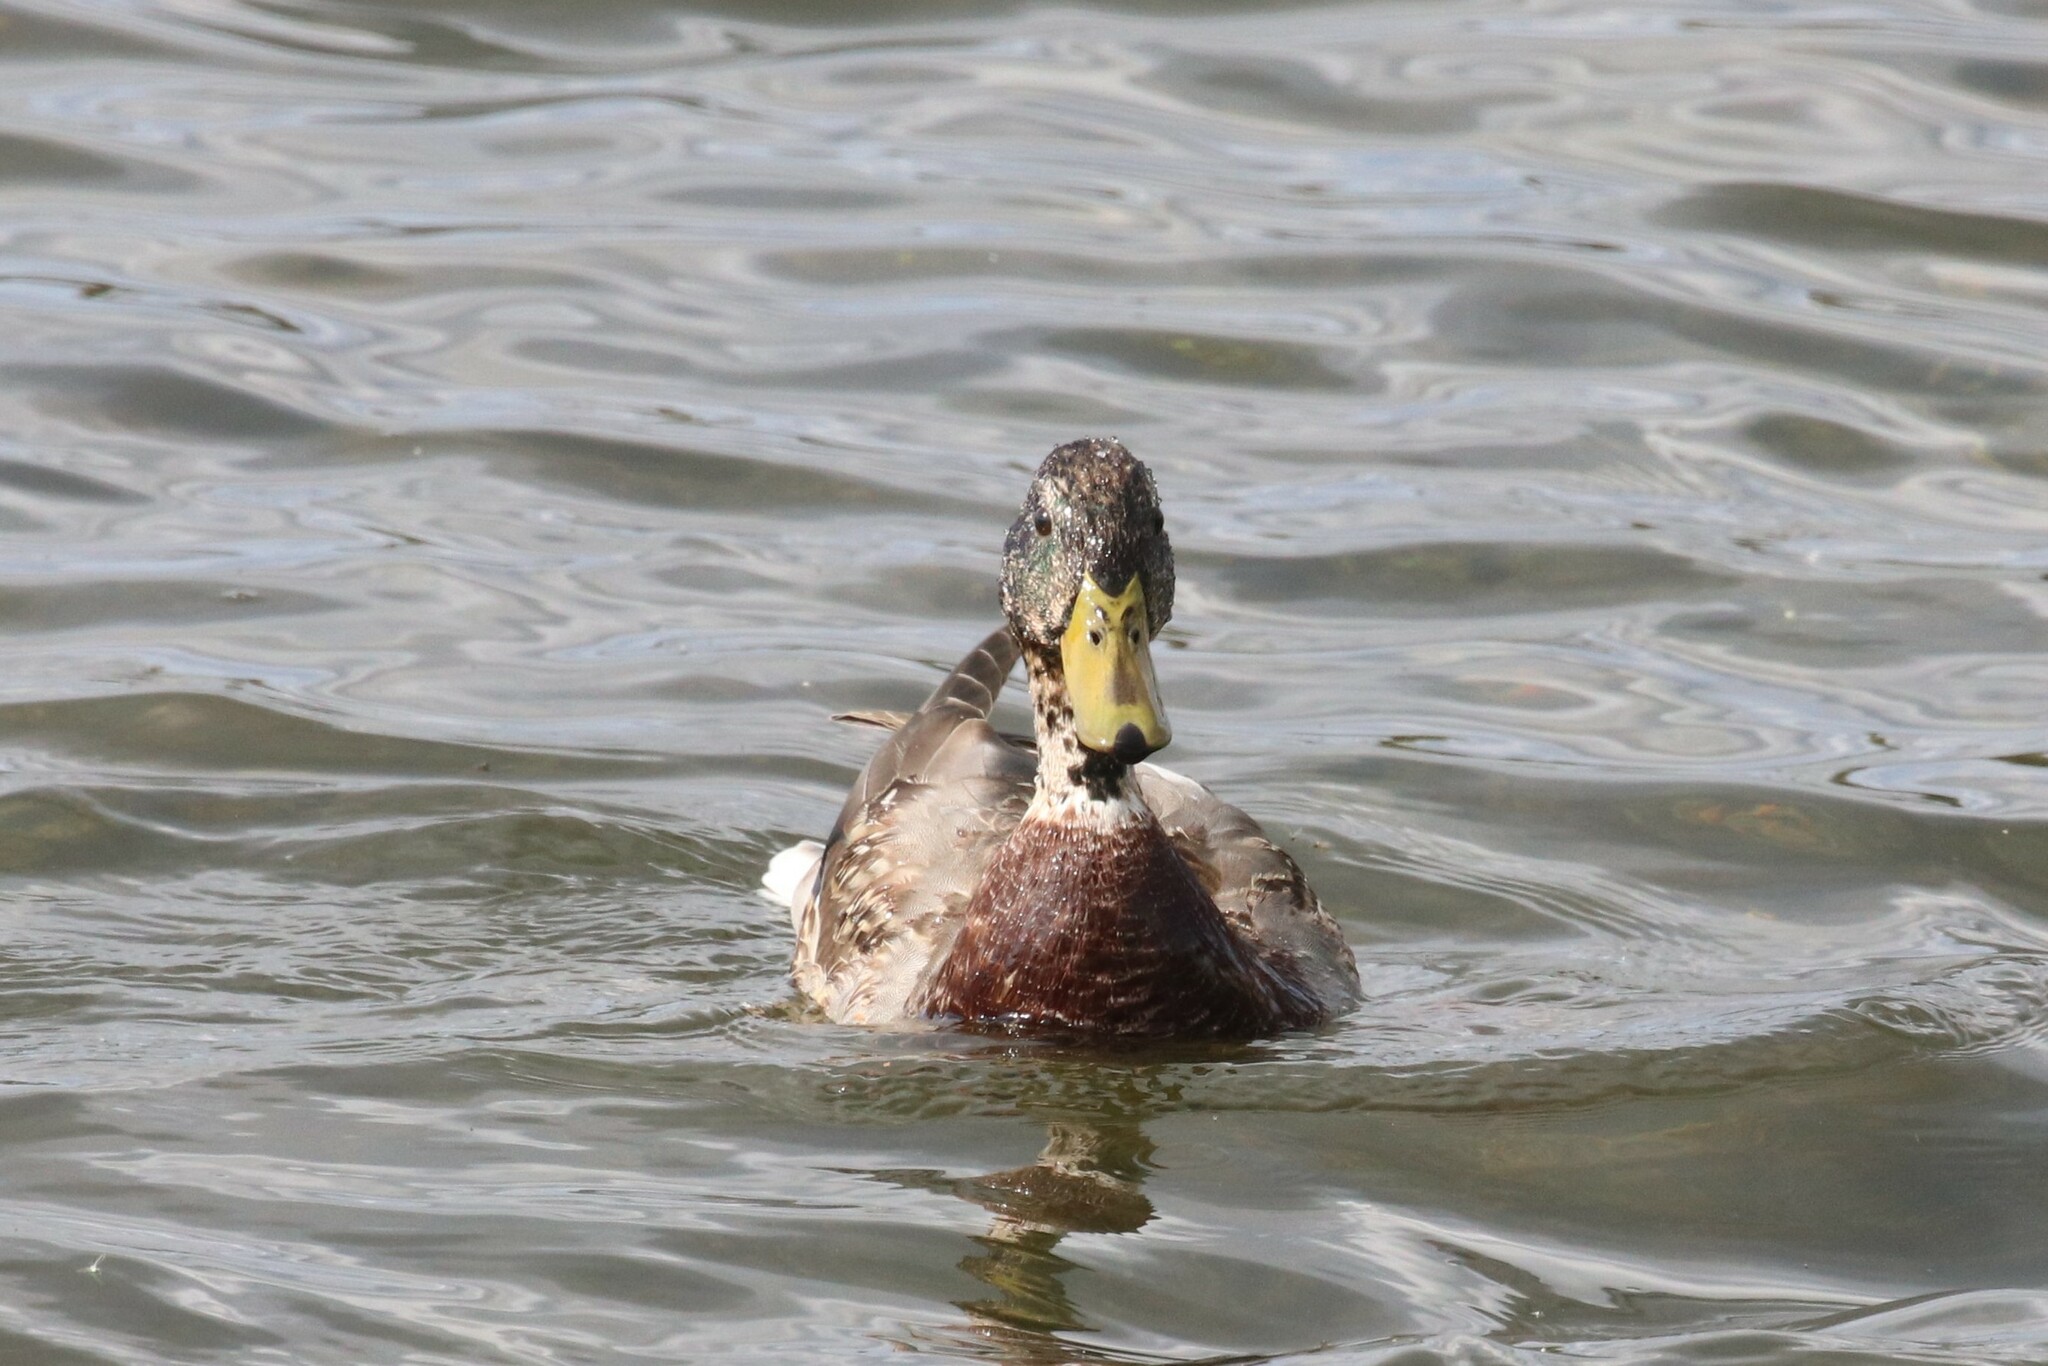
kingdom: Animalia
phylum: Chordata
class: Aves
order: Anseriformes
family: Anatidae
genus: Anas
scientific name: Anas platyrhynchos
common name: Mallard
